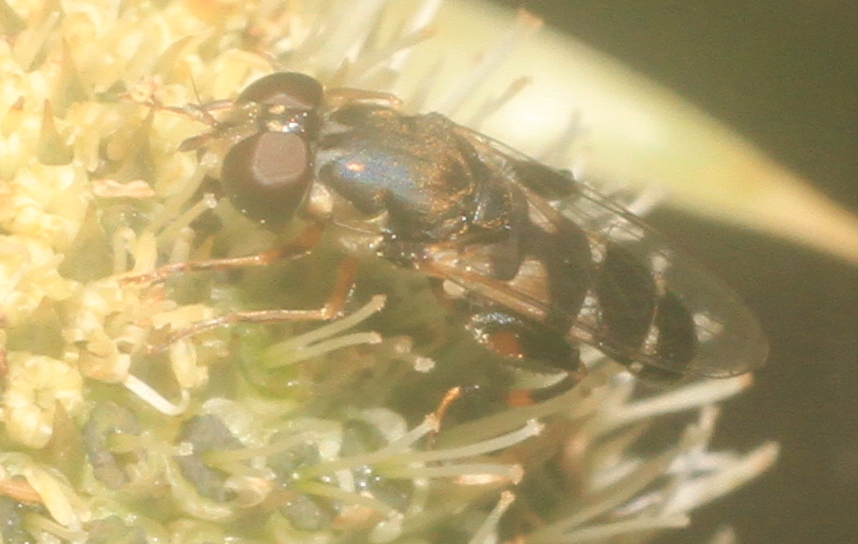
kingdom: Animalia
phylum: Arthropoda
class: Insecta
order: Diptera
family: Syrphidae
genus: Syritta
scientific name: Syritta pipiens
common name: Hover fly
